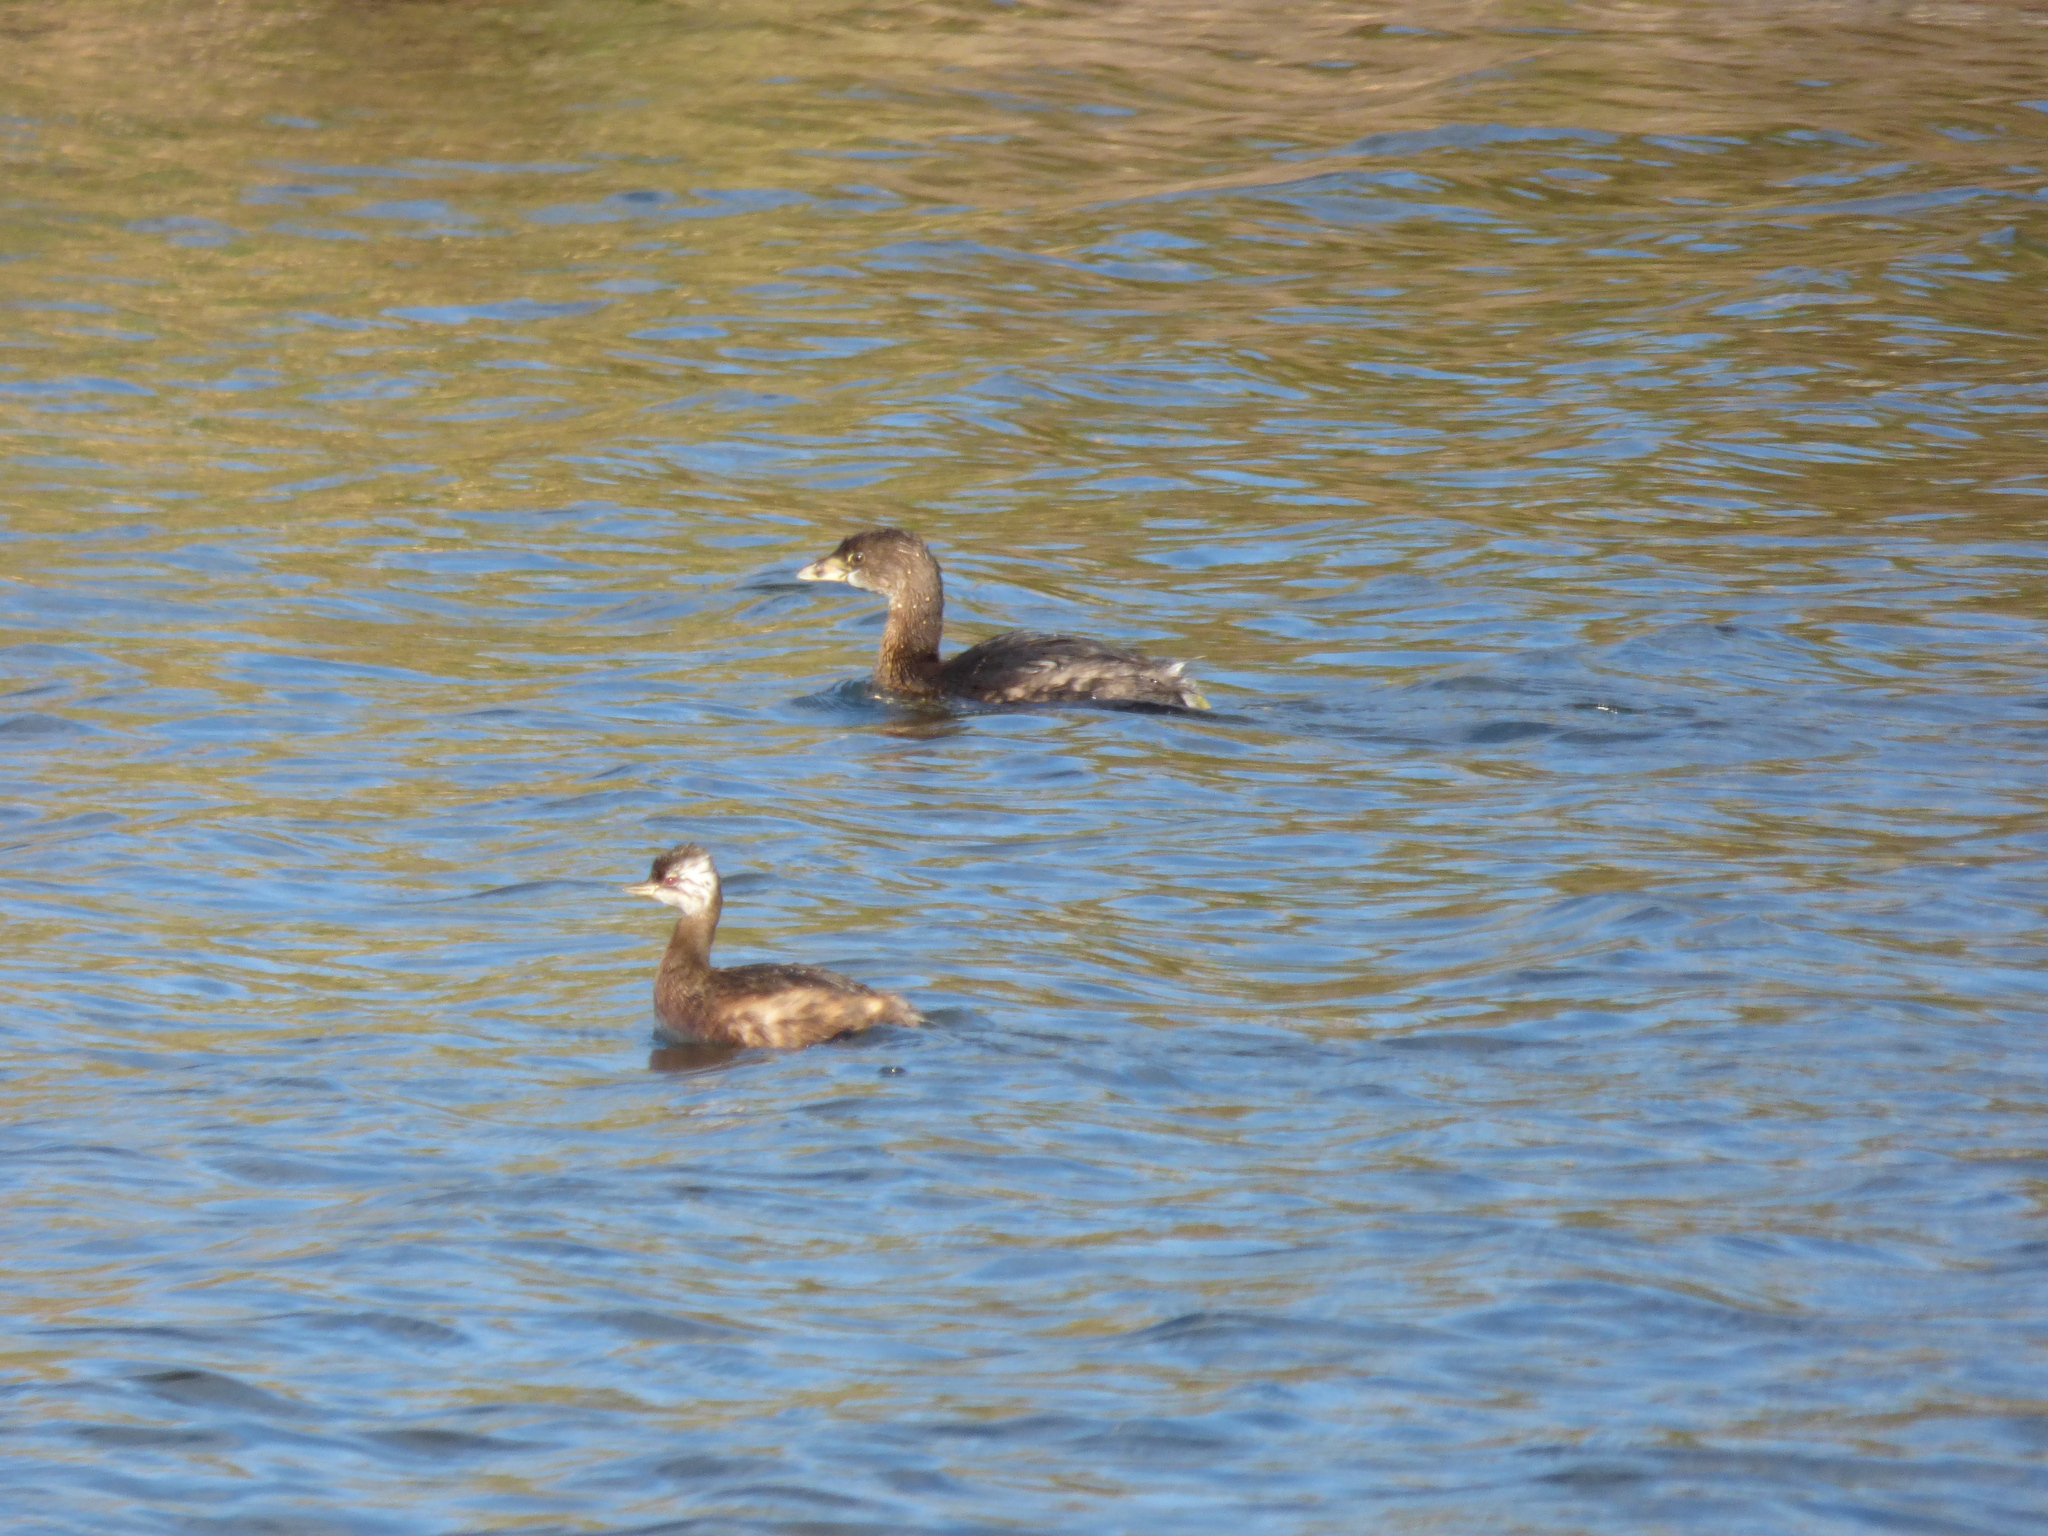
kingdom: Animalia
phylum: Chordata
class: Aves
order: Podicipediformes
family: Podicipedidae
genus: Podilymbus
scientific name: Podilymbus podiceps
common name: Pied-billed grebe
